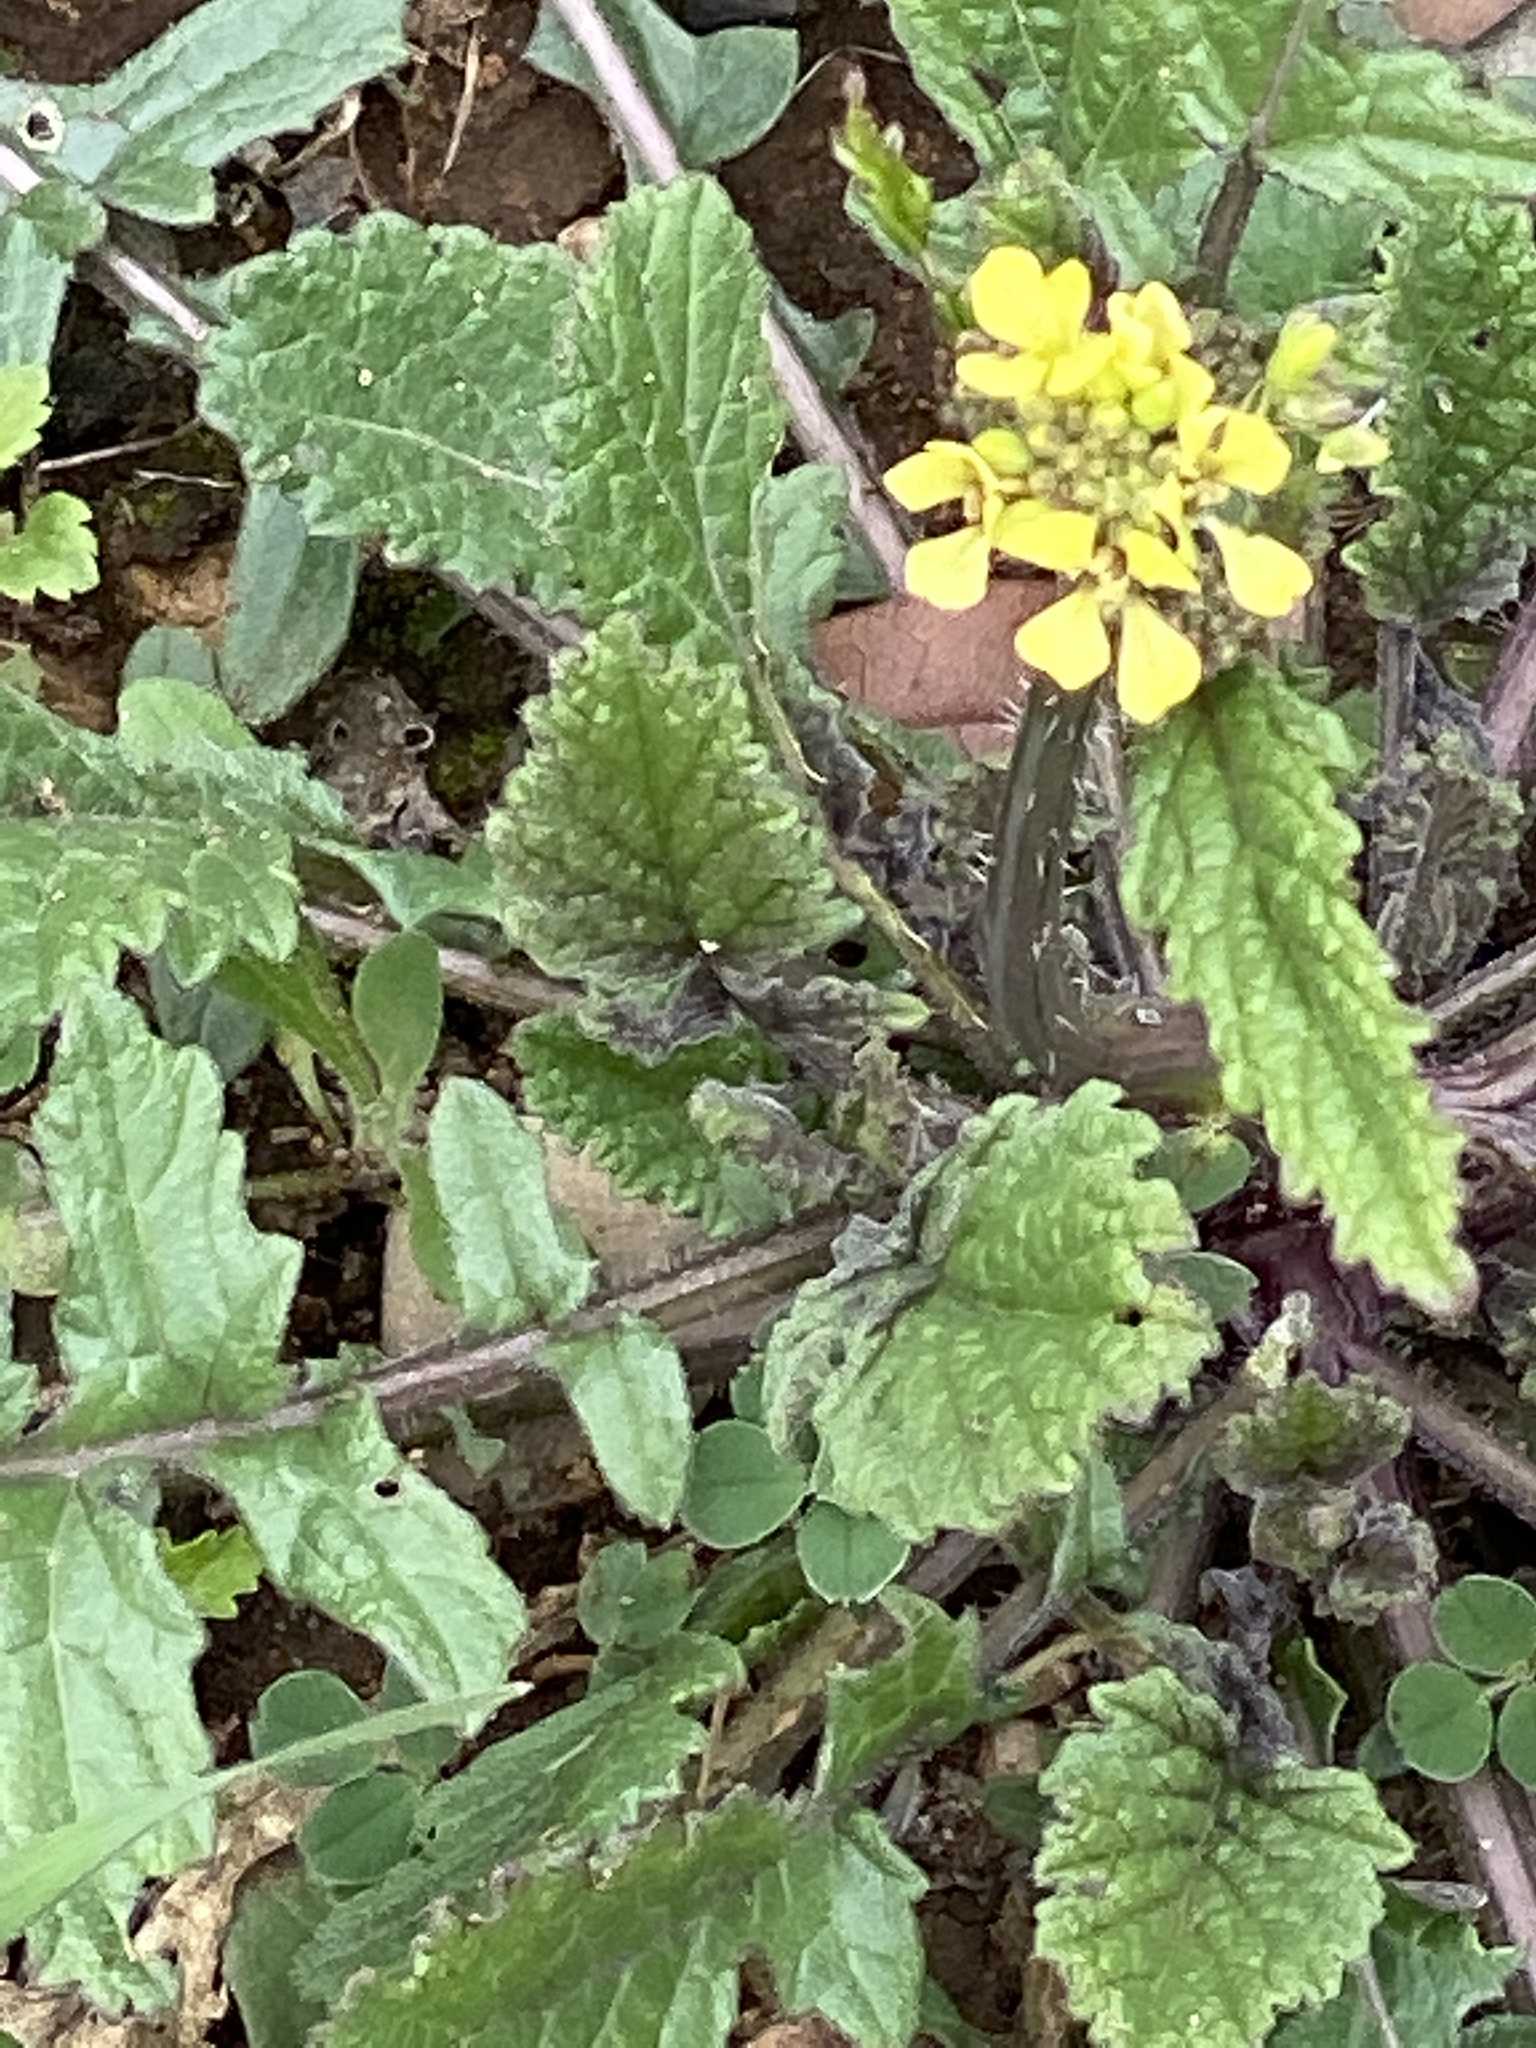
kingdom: Plantae
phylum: Tracheophyta
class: Magnoliopsida
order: Brassicales
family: Brassicaceae
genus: Rapistrum
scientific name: Rapistrum rugosum
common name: Annual bastardcabbage
